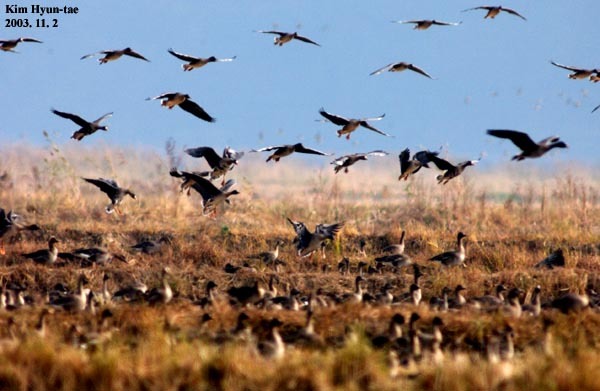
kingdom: Animalia
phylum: Chordata
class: Aves
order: Anseriformes
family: Anatidae
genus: Anser
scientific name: Anser albifrons
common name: Greater white-fronted goose
